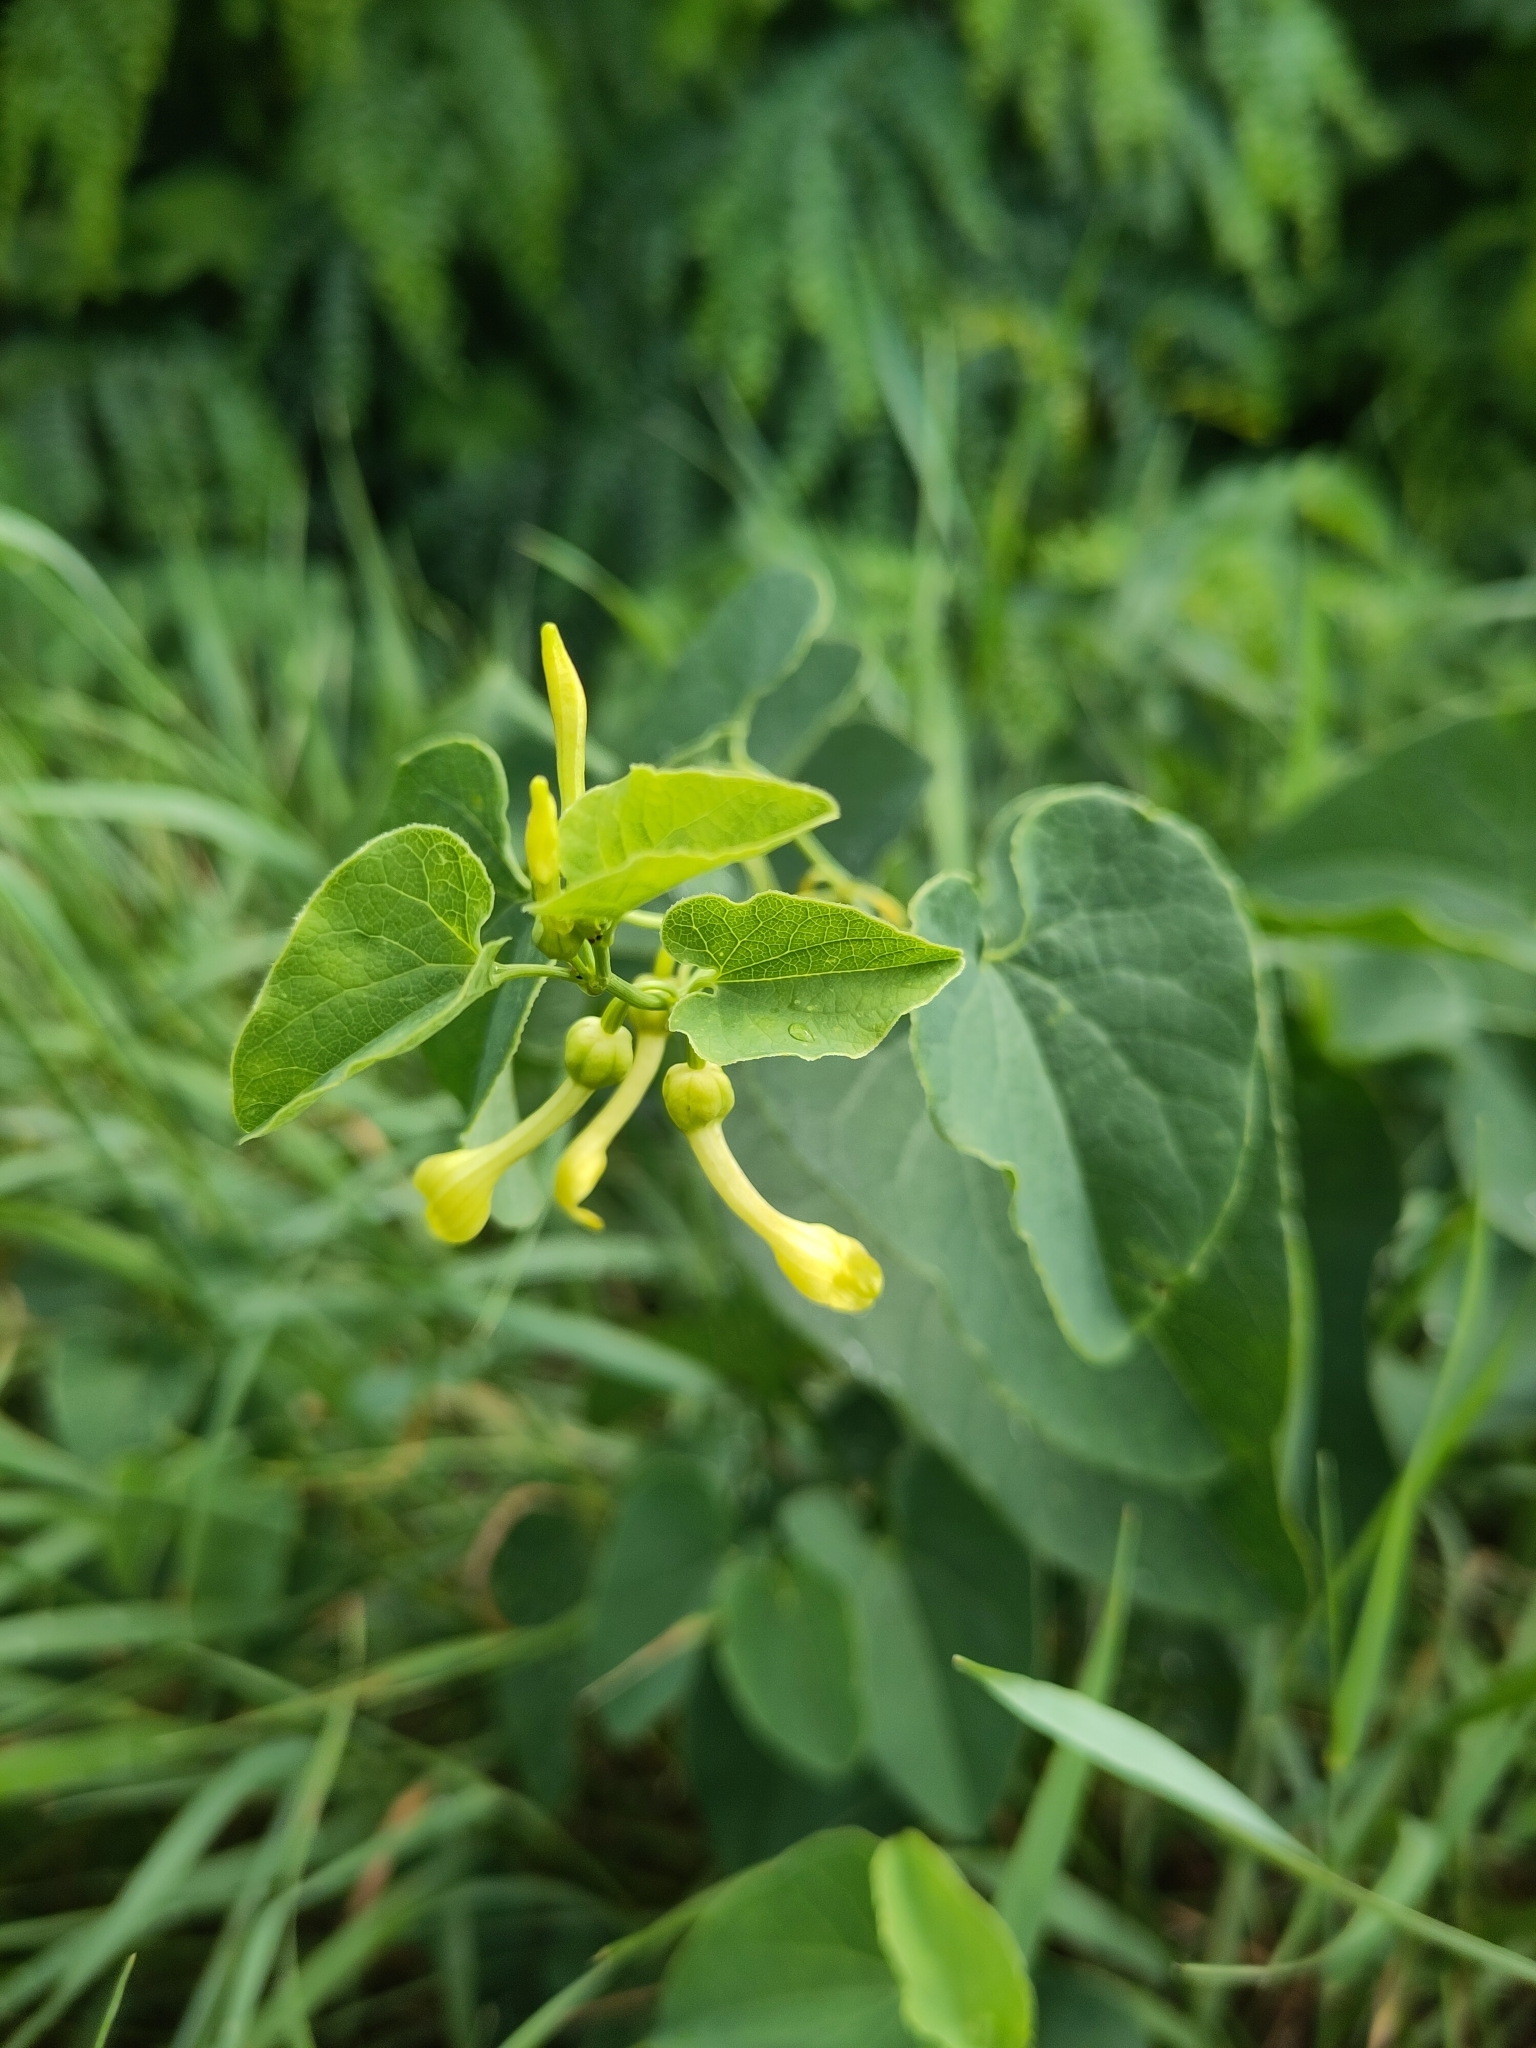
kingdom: Plantae
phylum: Tracheophyta
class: Magnoliopsida
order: Piperales
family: Aristolochiaceae
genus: Aristolochia
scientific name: Aristolochia clematitis
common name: Birthwort
